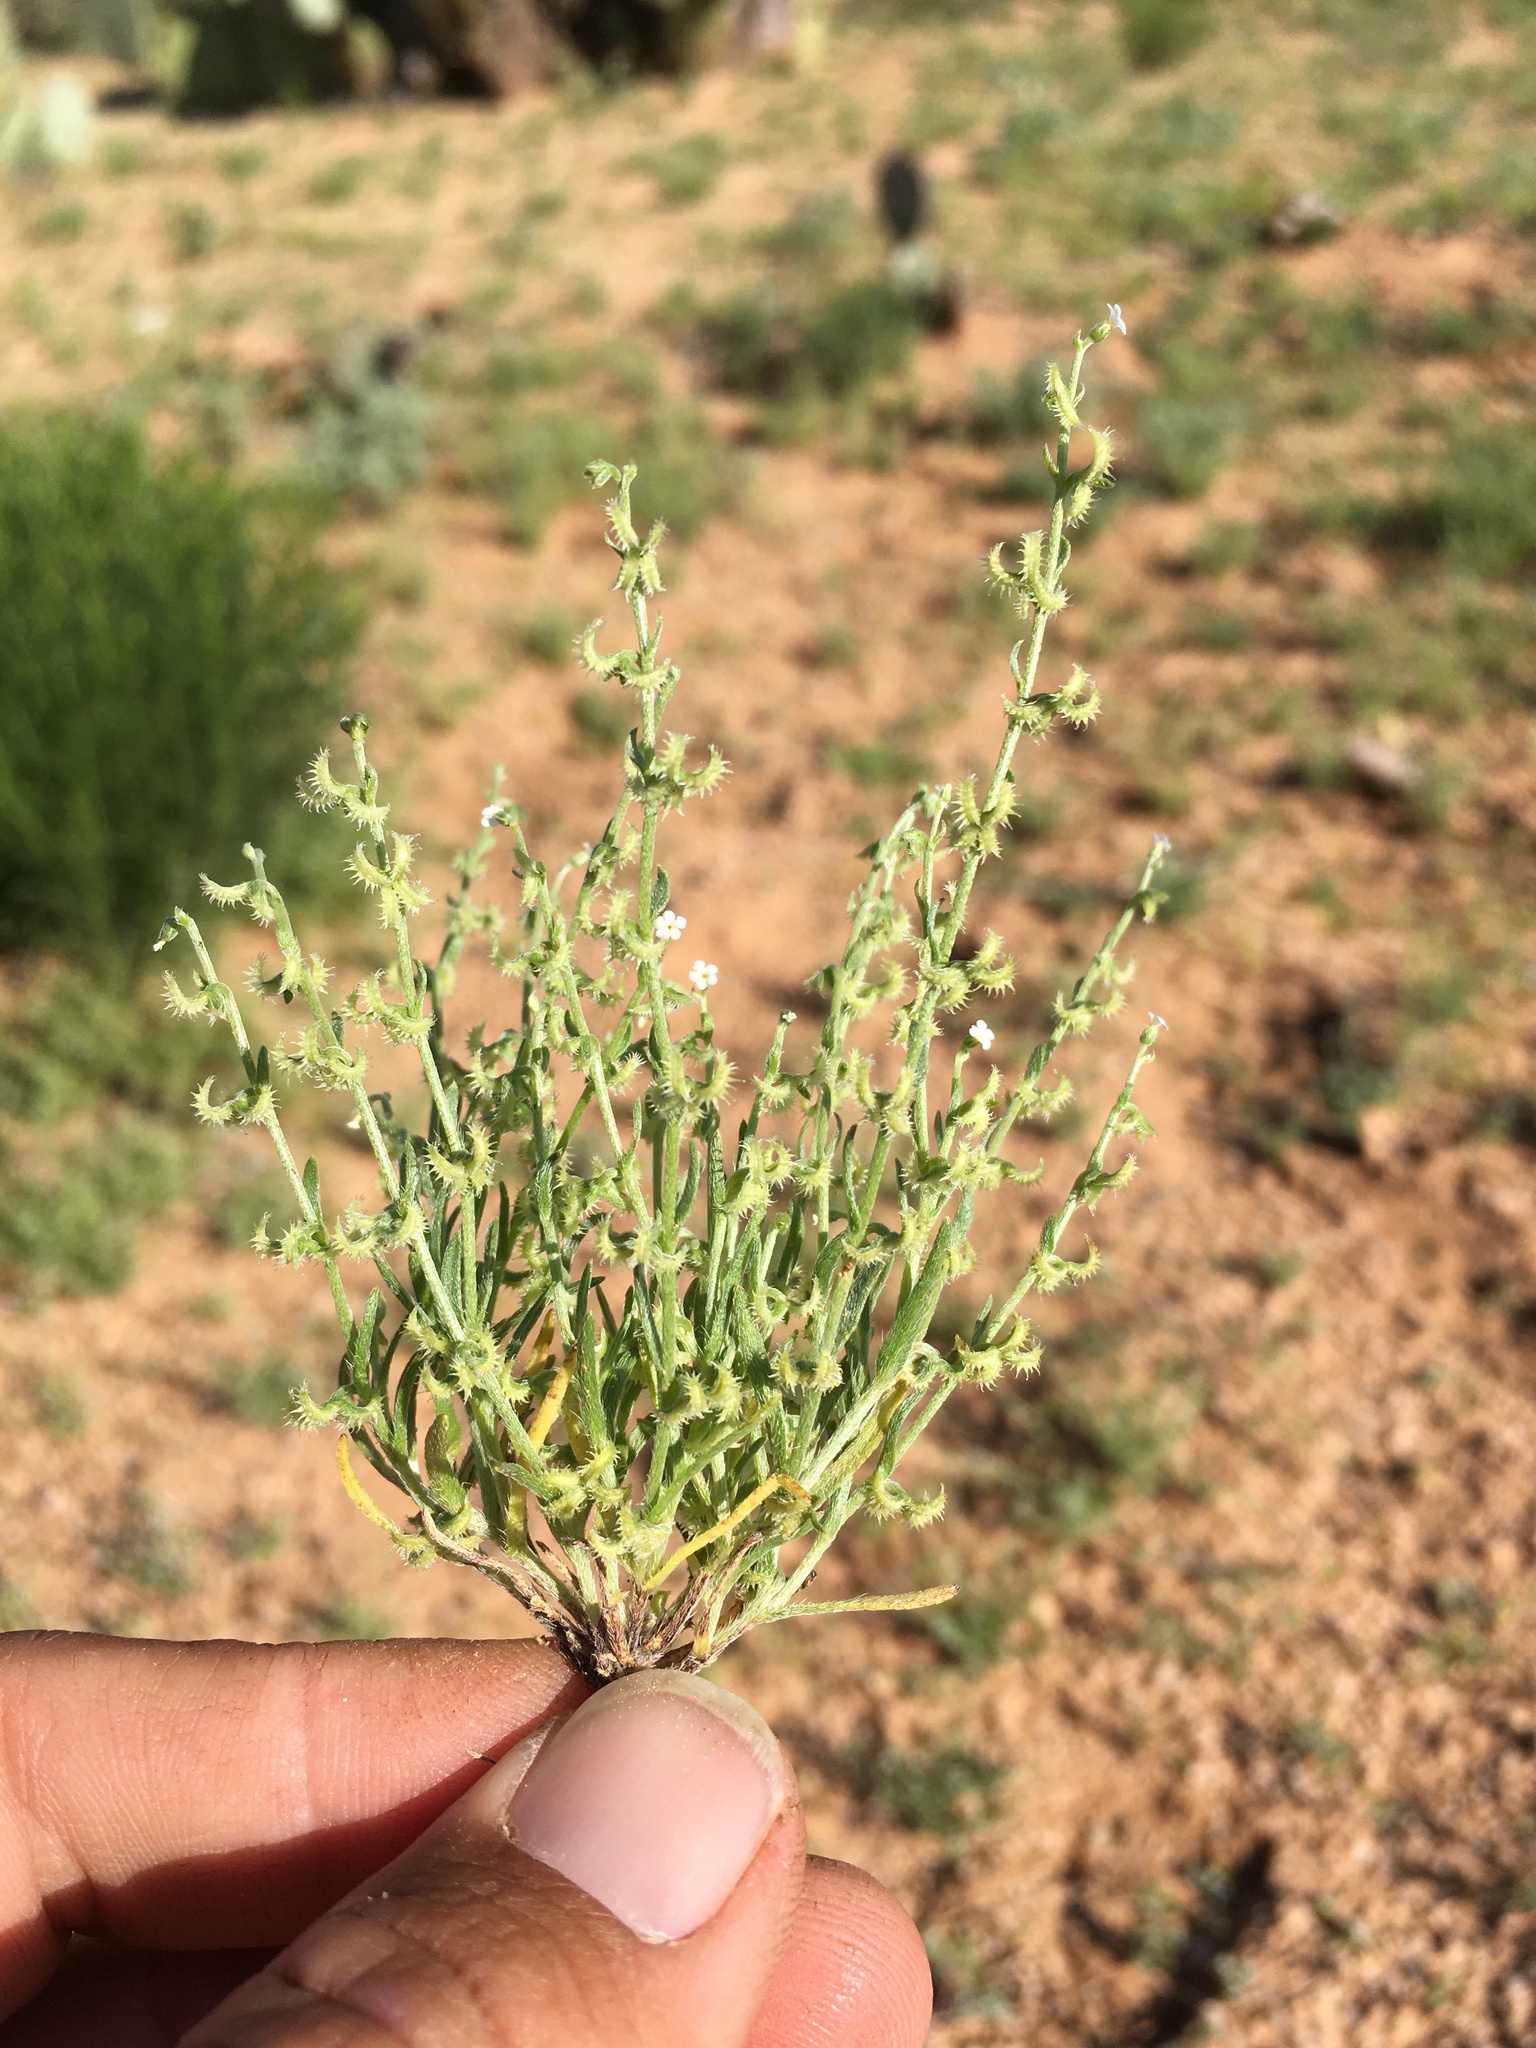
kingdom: Plantae
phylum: Tracheophyta
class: Magnoliopsida
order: Boraginales
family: Boraginaceae
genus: Pectocarya
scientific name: Pectocarya recurvata
